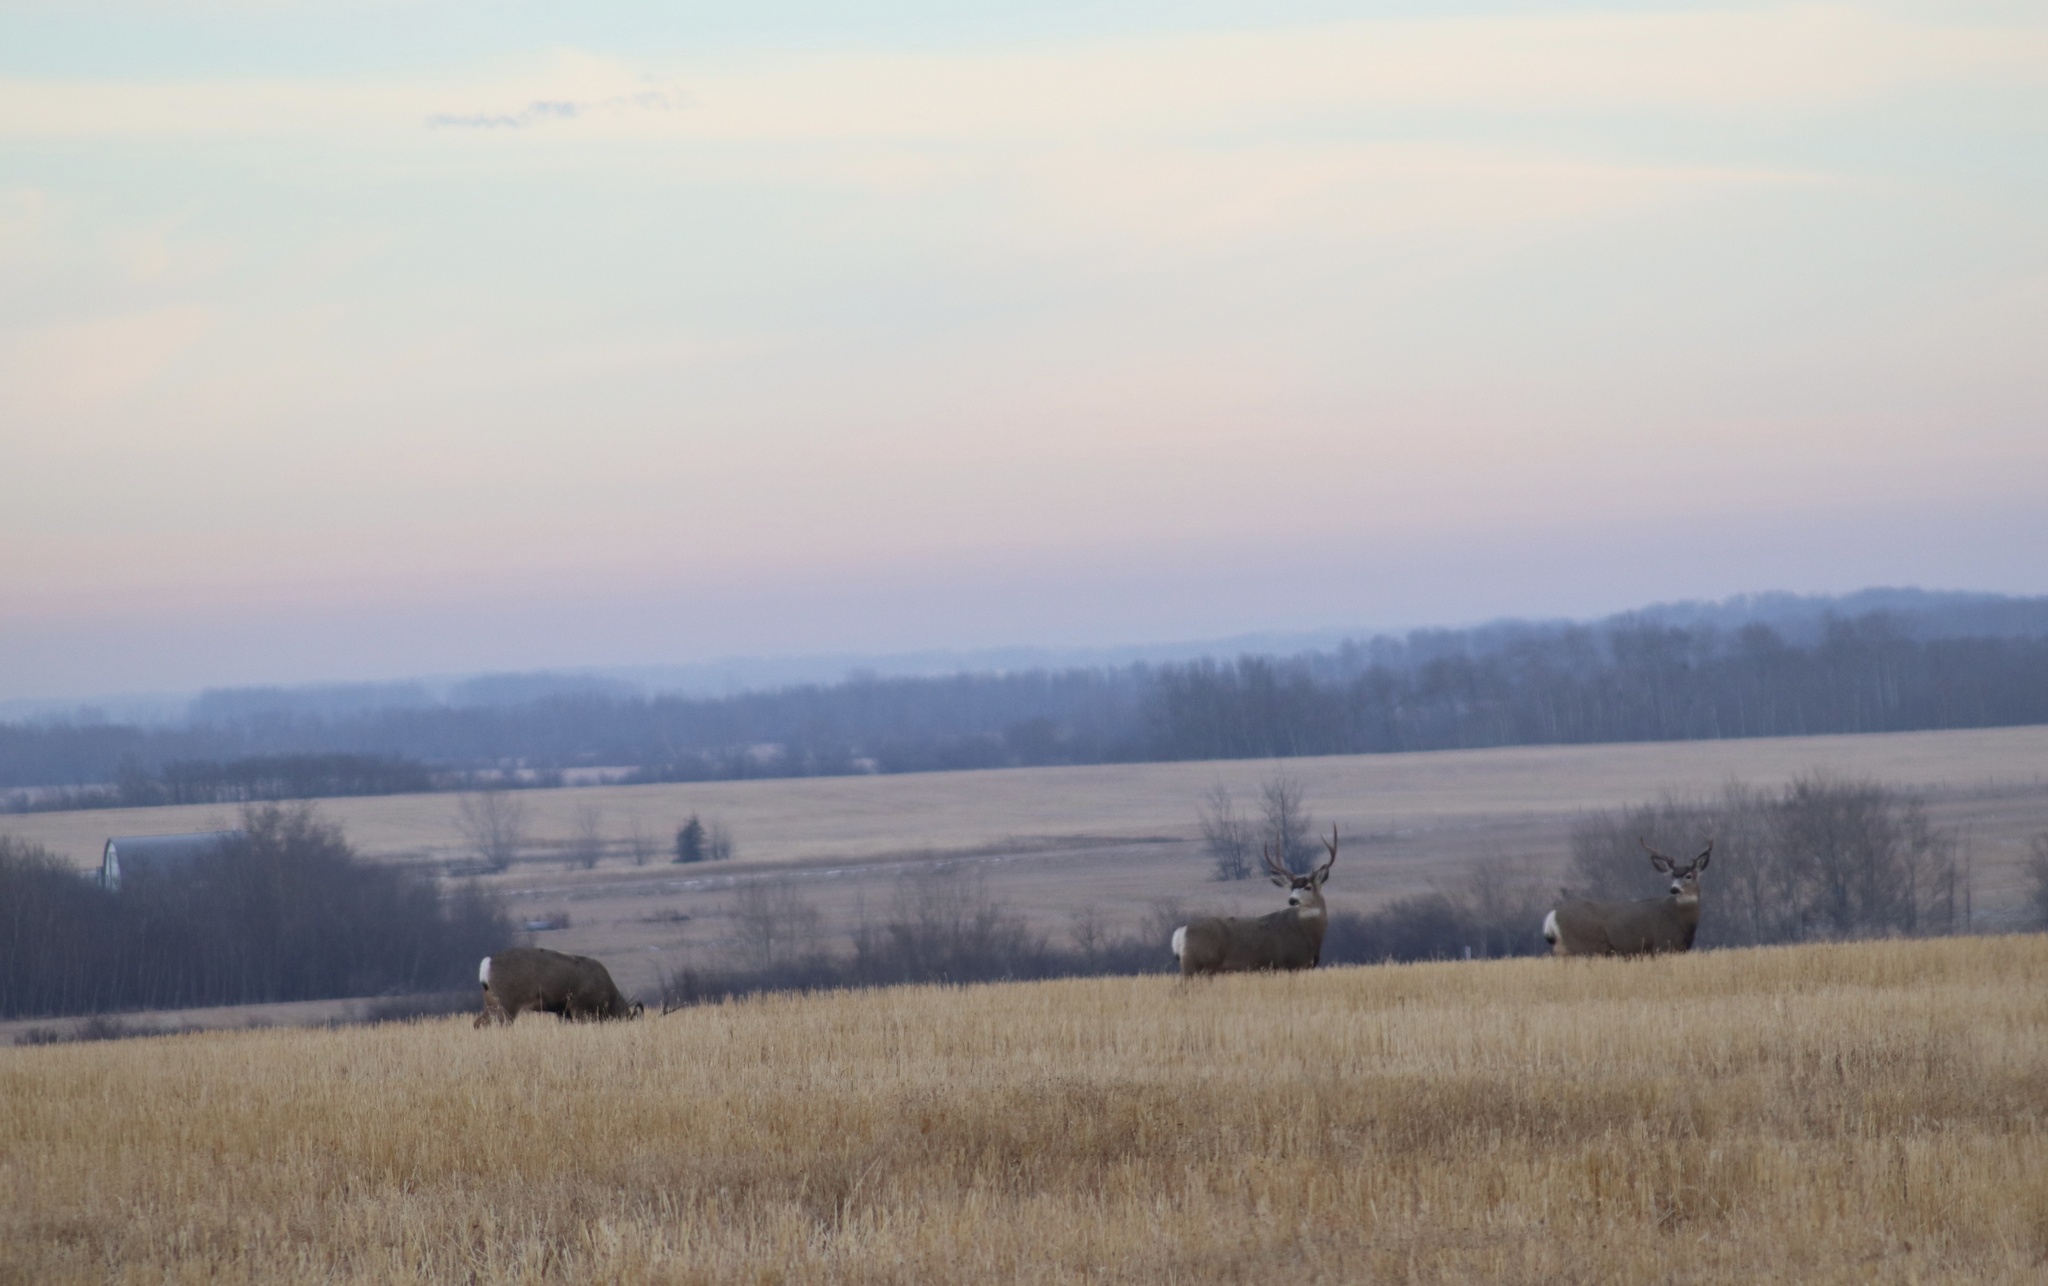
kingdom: Animalia
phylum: Chordata
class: Mammalia
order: Artiodactyla
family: Cervidae
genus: Odocoileus
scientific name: Odocoileus hemionus
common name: Mule deer
